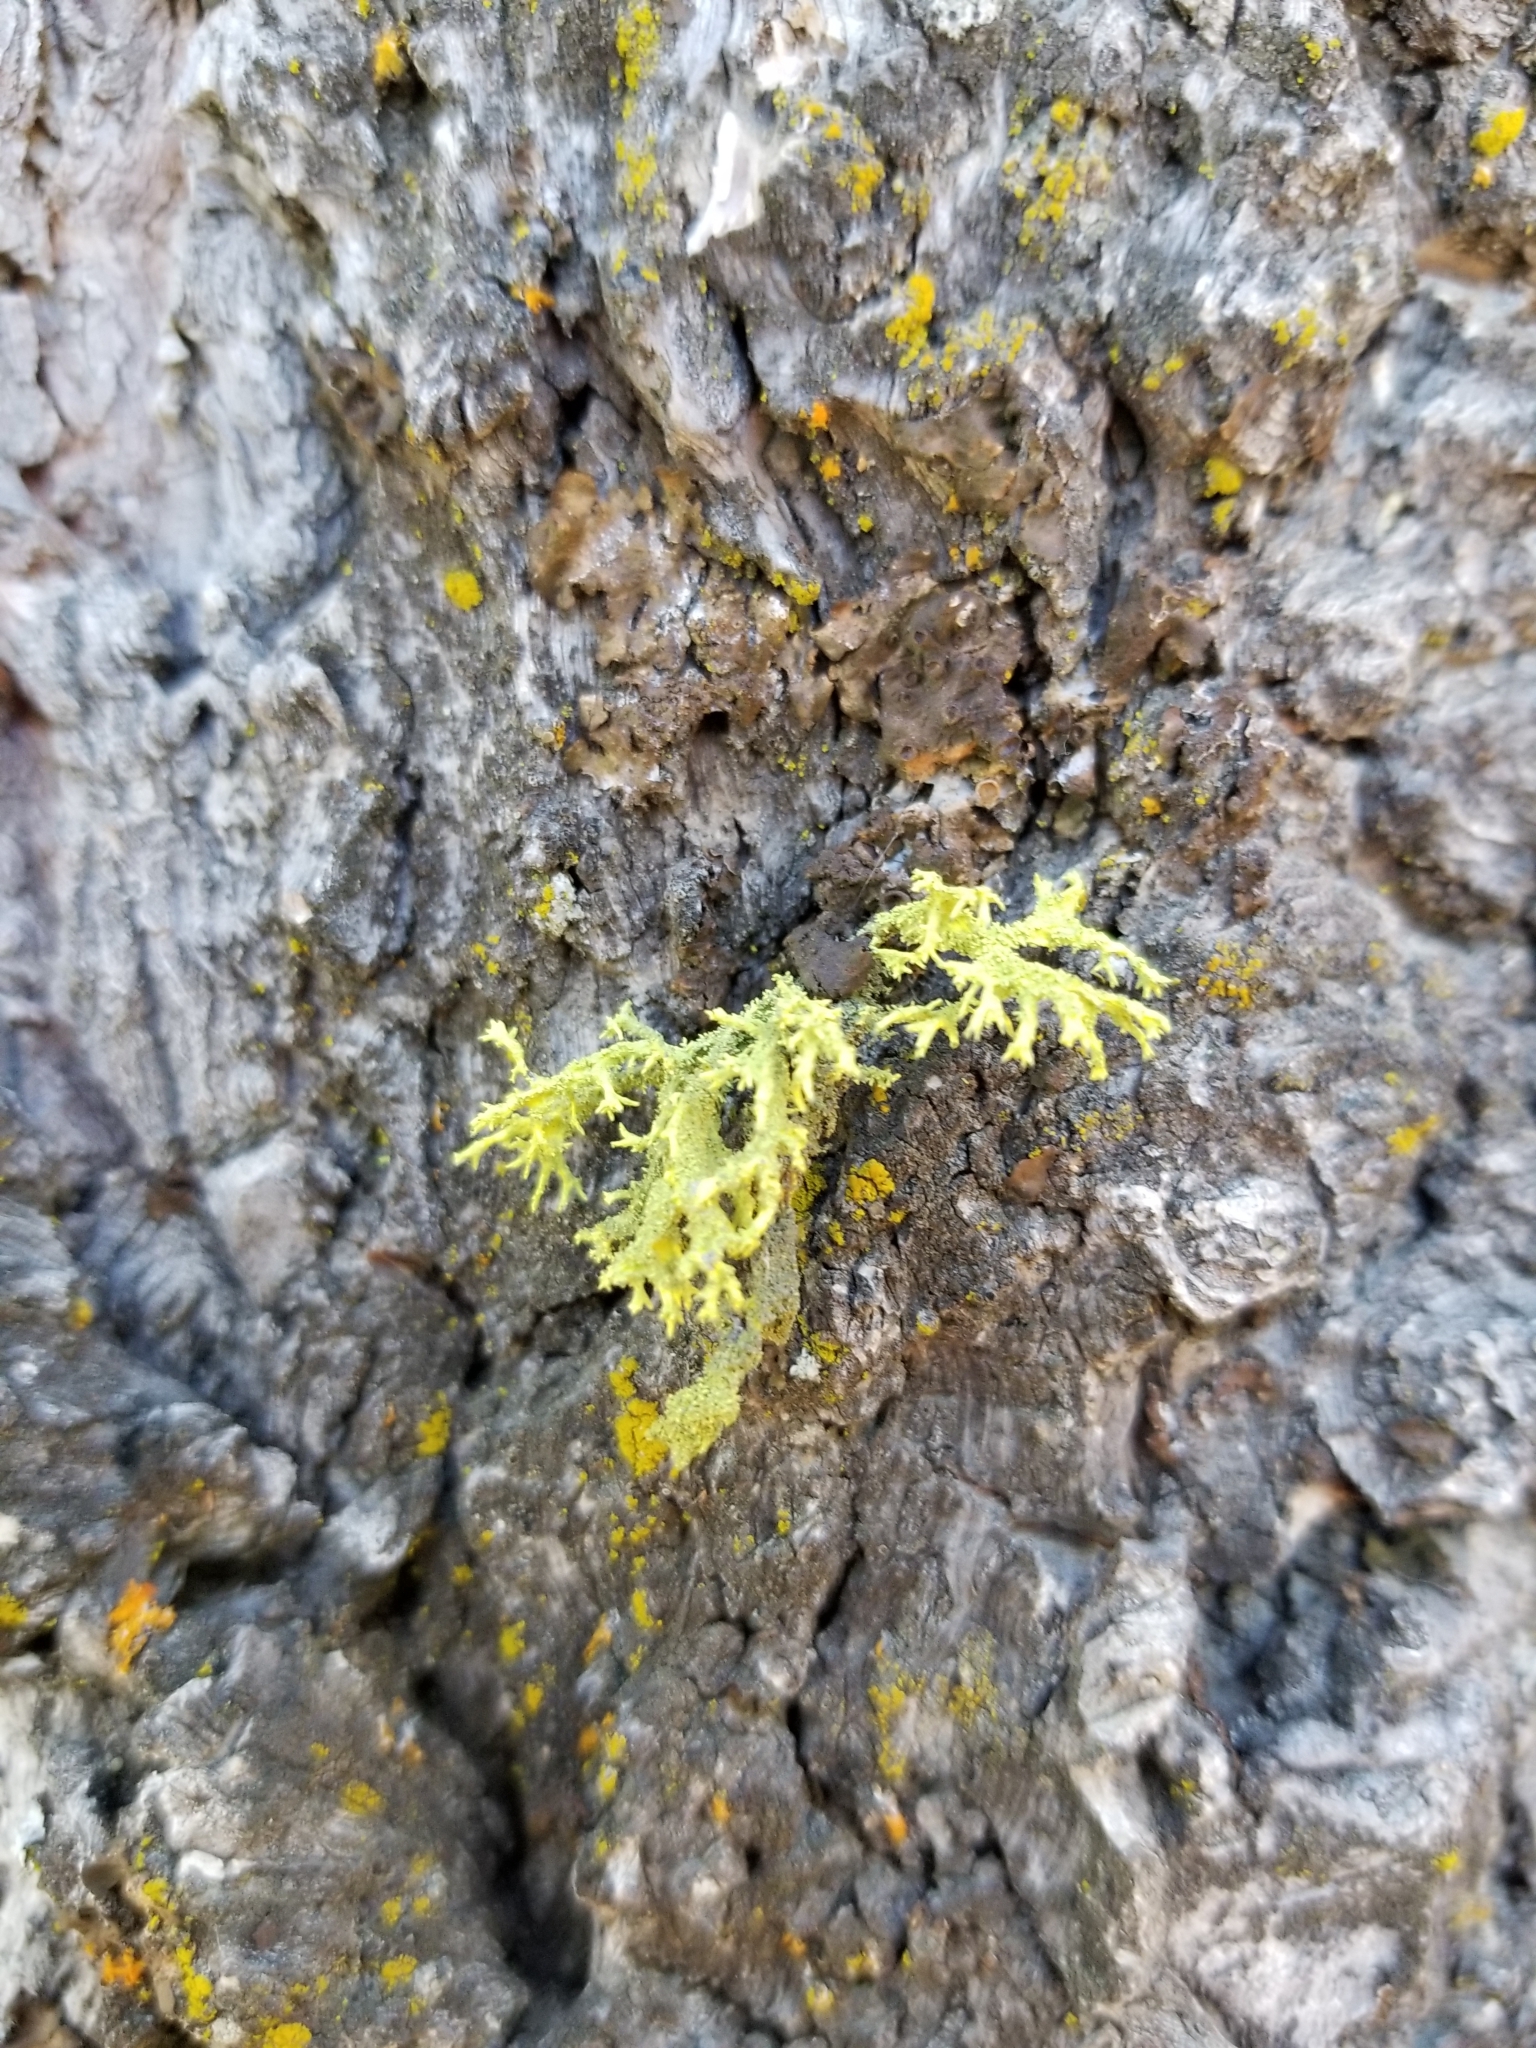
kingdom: Fungi
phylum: Ascomycota
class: Lecanoromycetes
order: Lecanorales
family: Parmeliaceae
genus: Letharia
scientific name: Letharia vulpina
